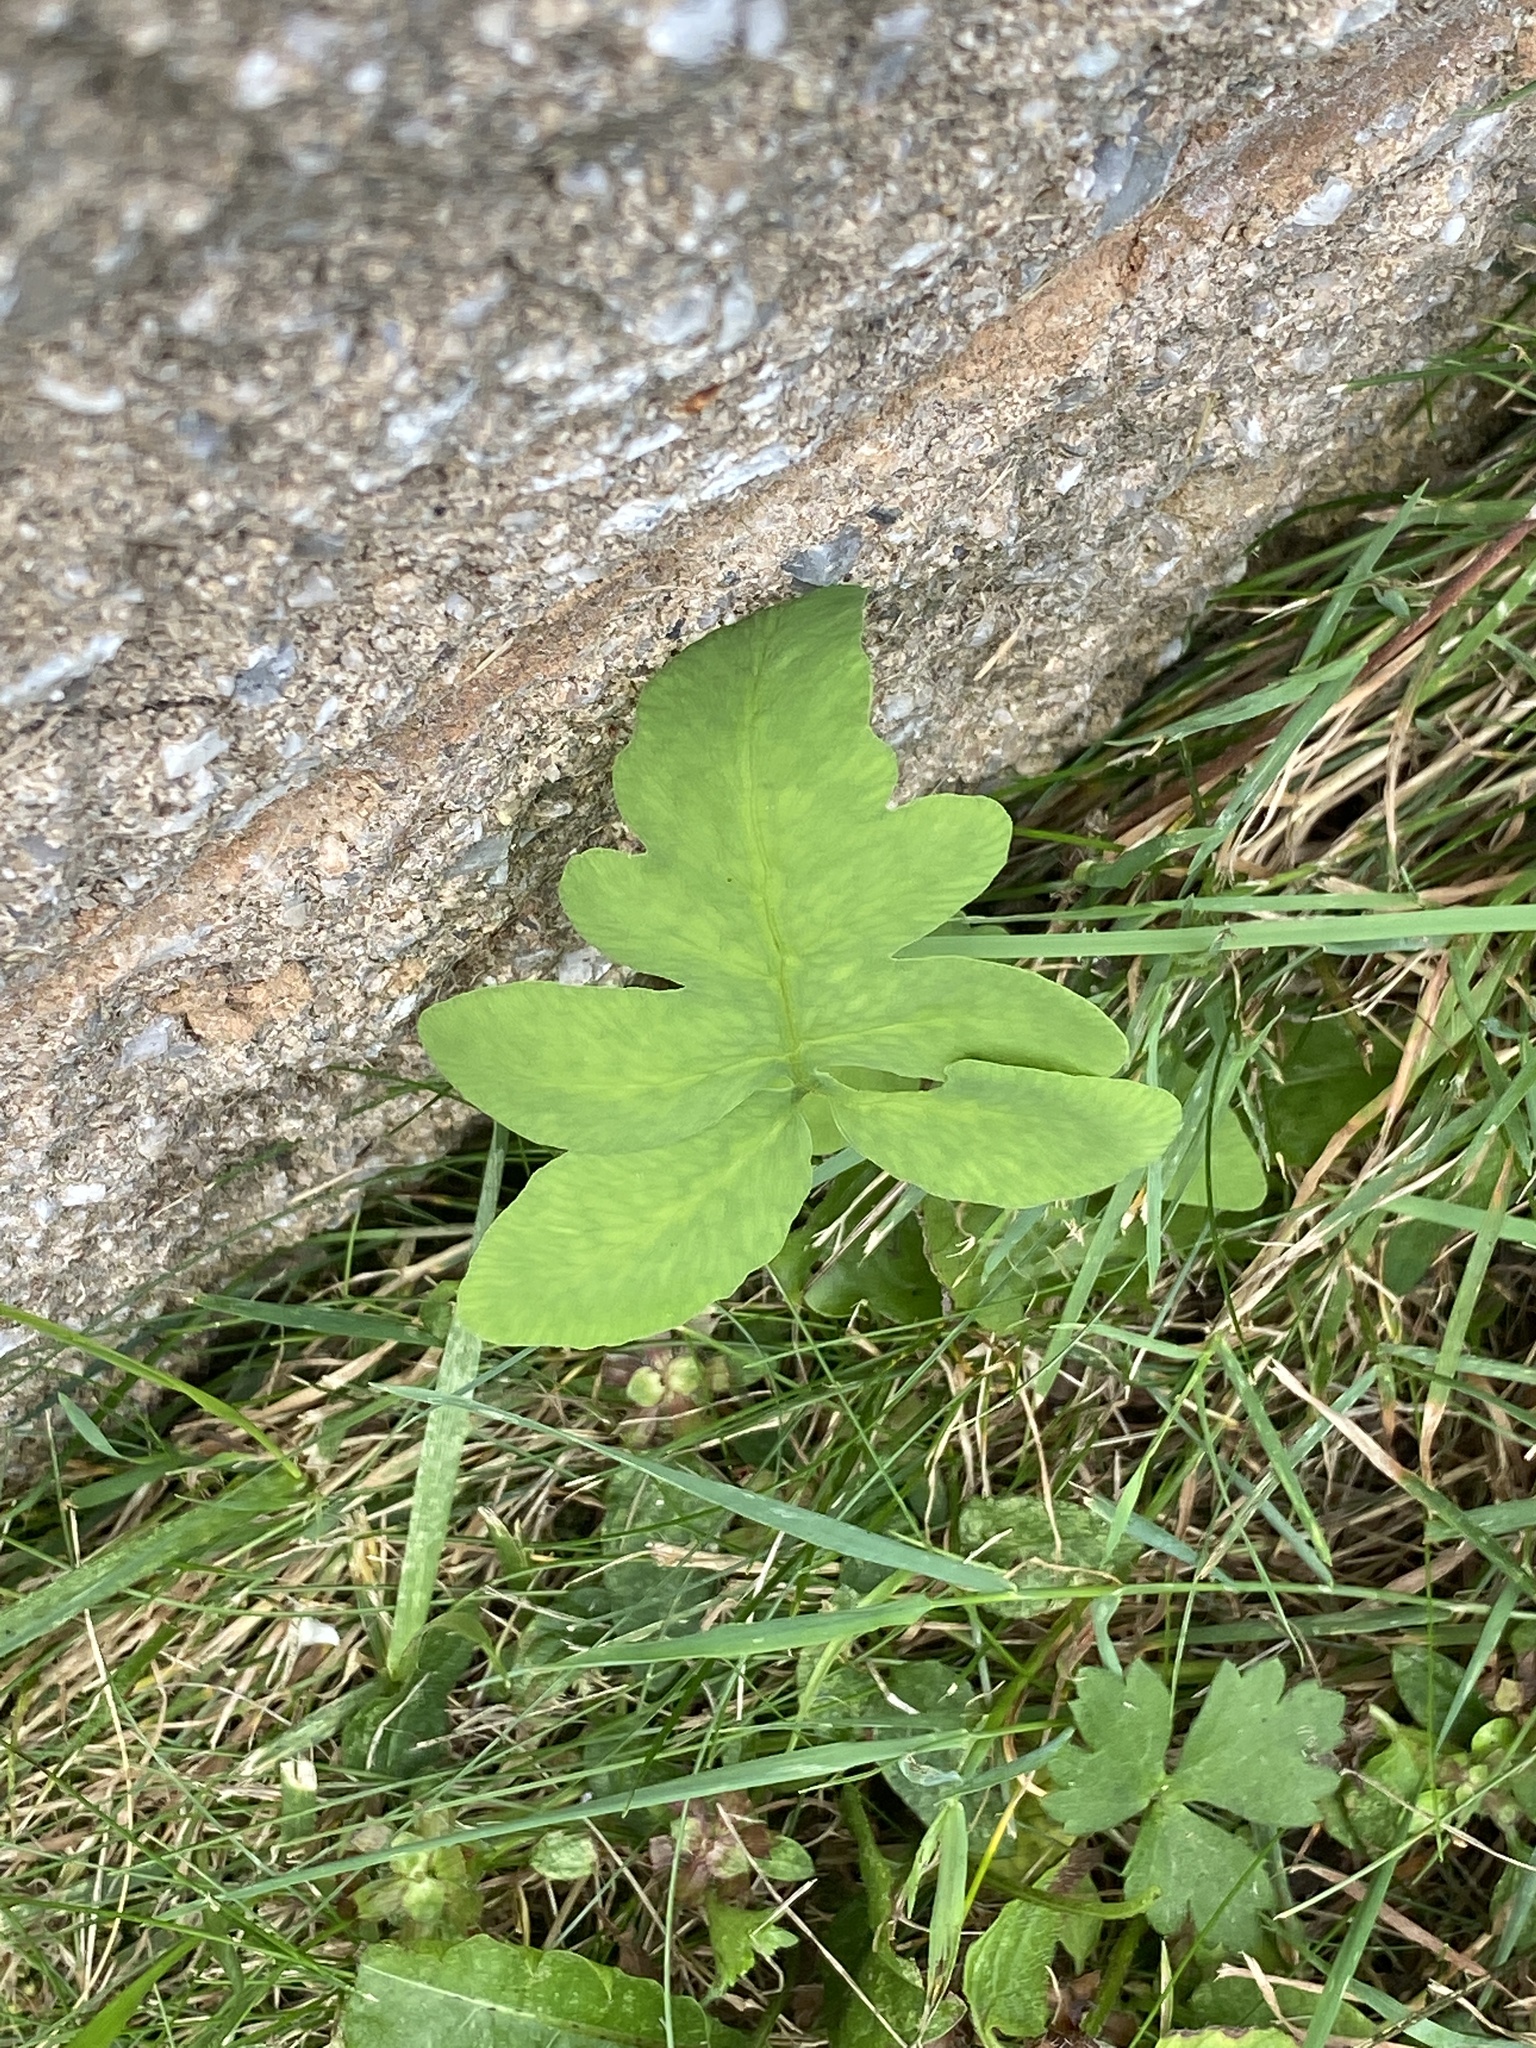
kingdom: Plantae
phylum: Tracheophyta
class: Polypodiopsida
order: Polypodiales
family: Onocleaceae
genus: Onoclea
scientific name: Onoclea sensibilis
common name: Sensitive fern
